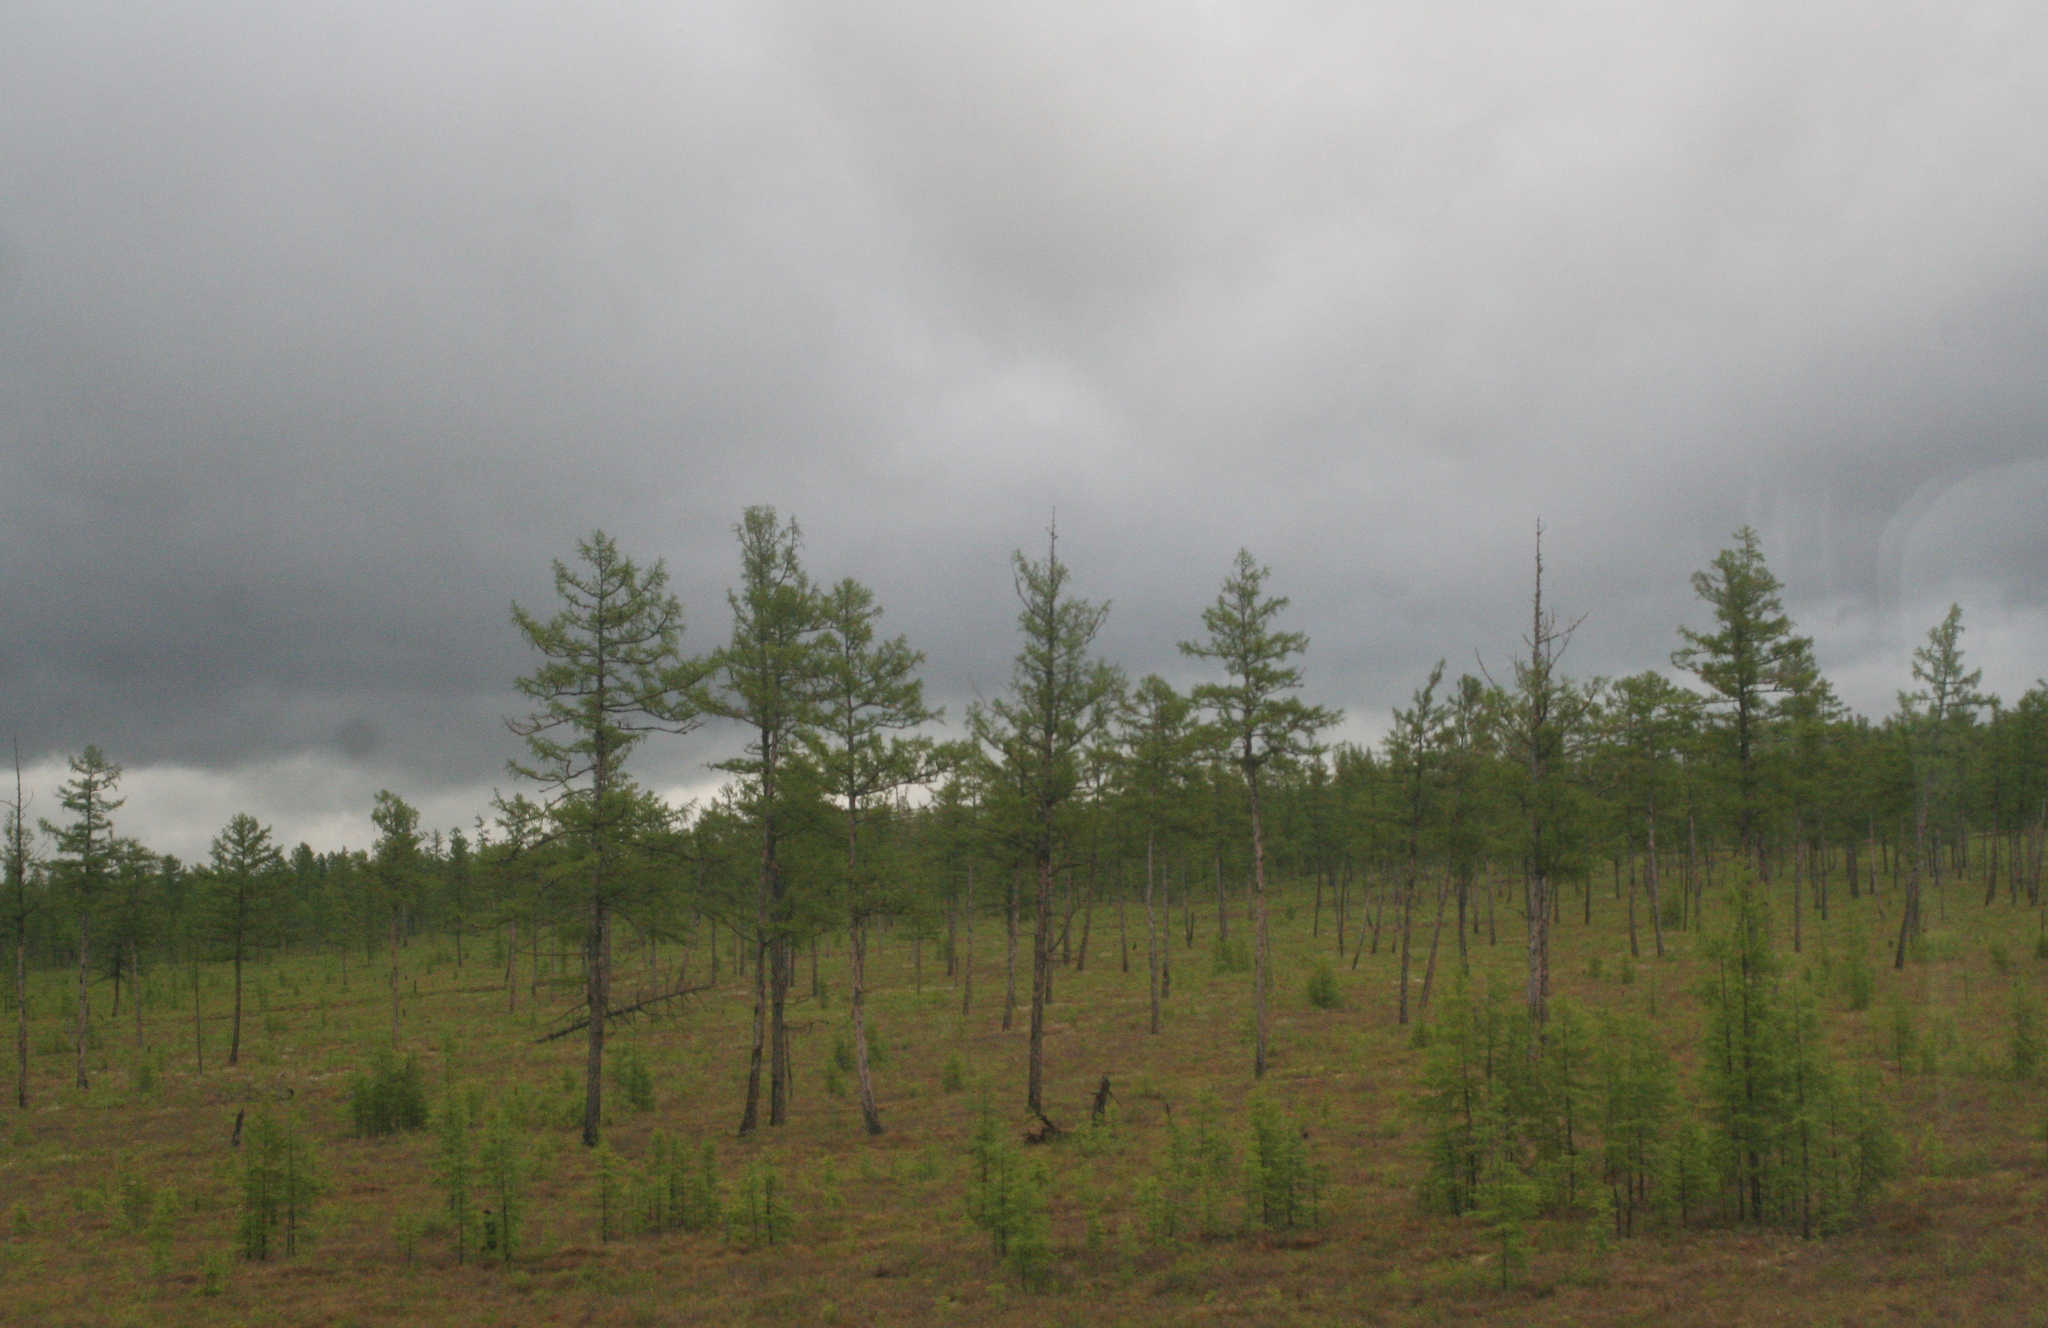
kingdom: Plantae
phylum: Tracheophyta
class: Pinopsida
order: Pinales
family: Pinaceae
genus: Larix
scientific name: Larix gmelinii
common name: Dahurian larch
